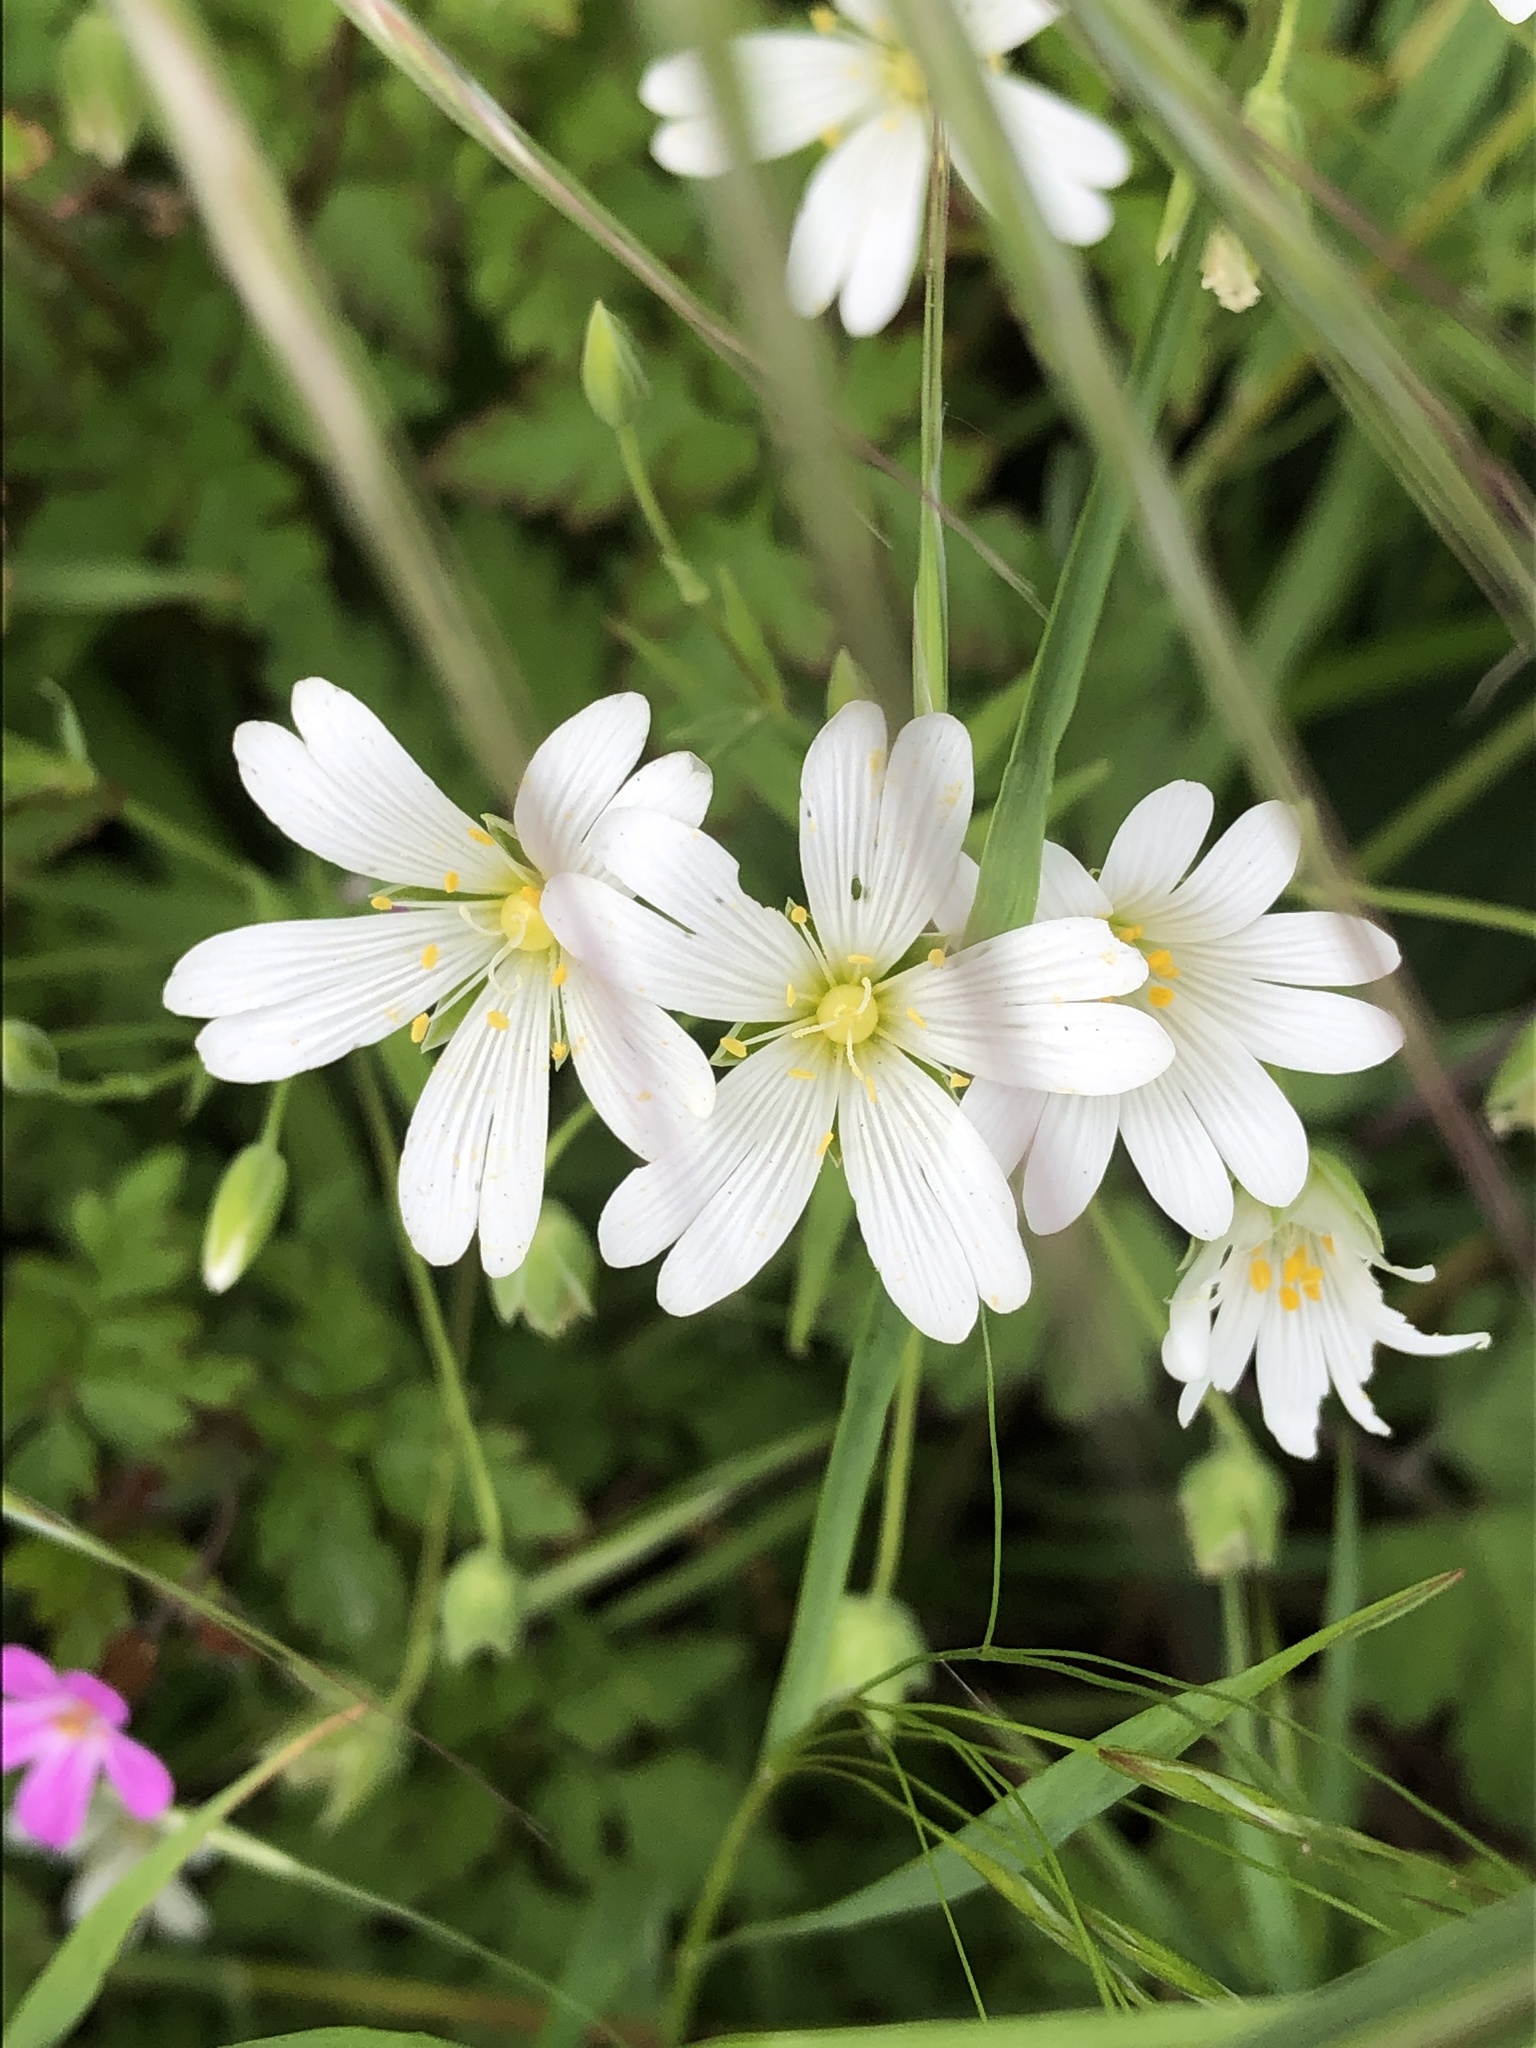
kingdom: Plantae
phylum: Tracheophyta
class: Magnoliopsida
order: Caryophyllales
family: Caryophyllaceae
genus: Rabelera
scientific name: Rabelera holostea
